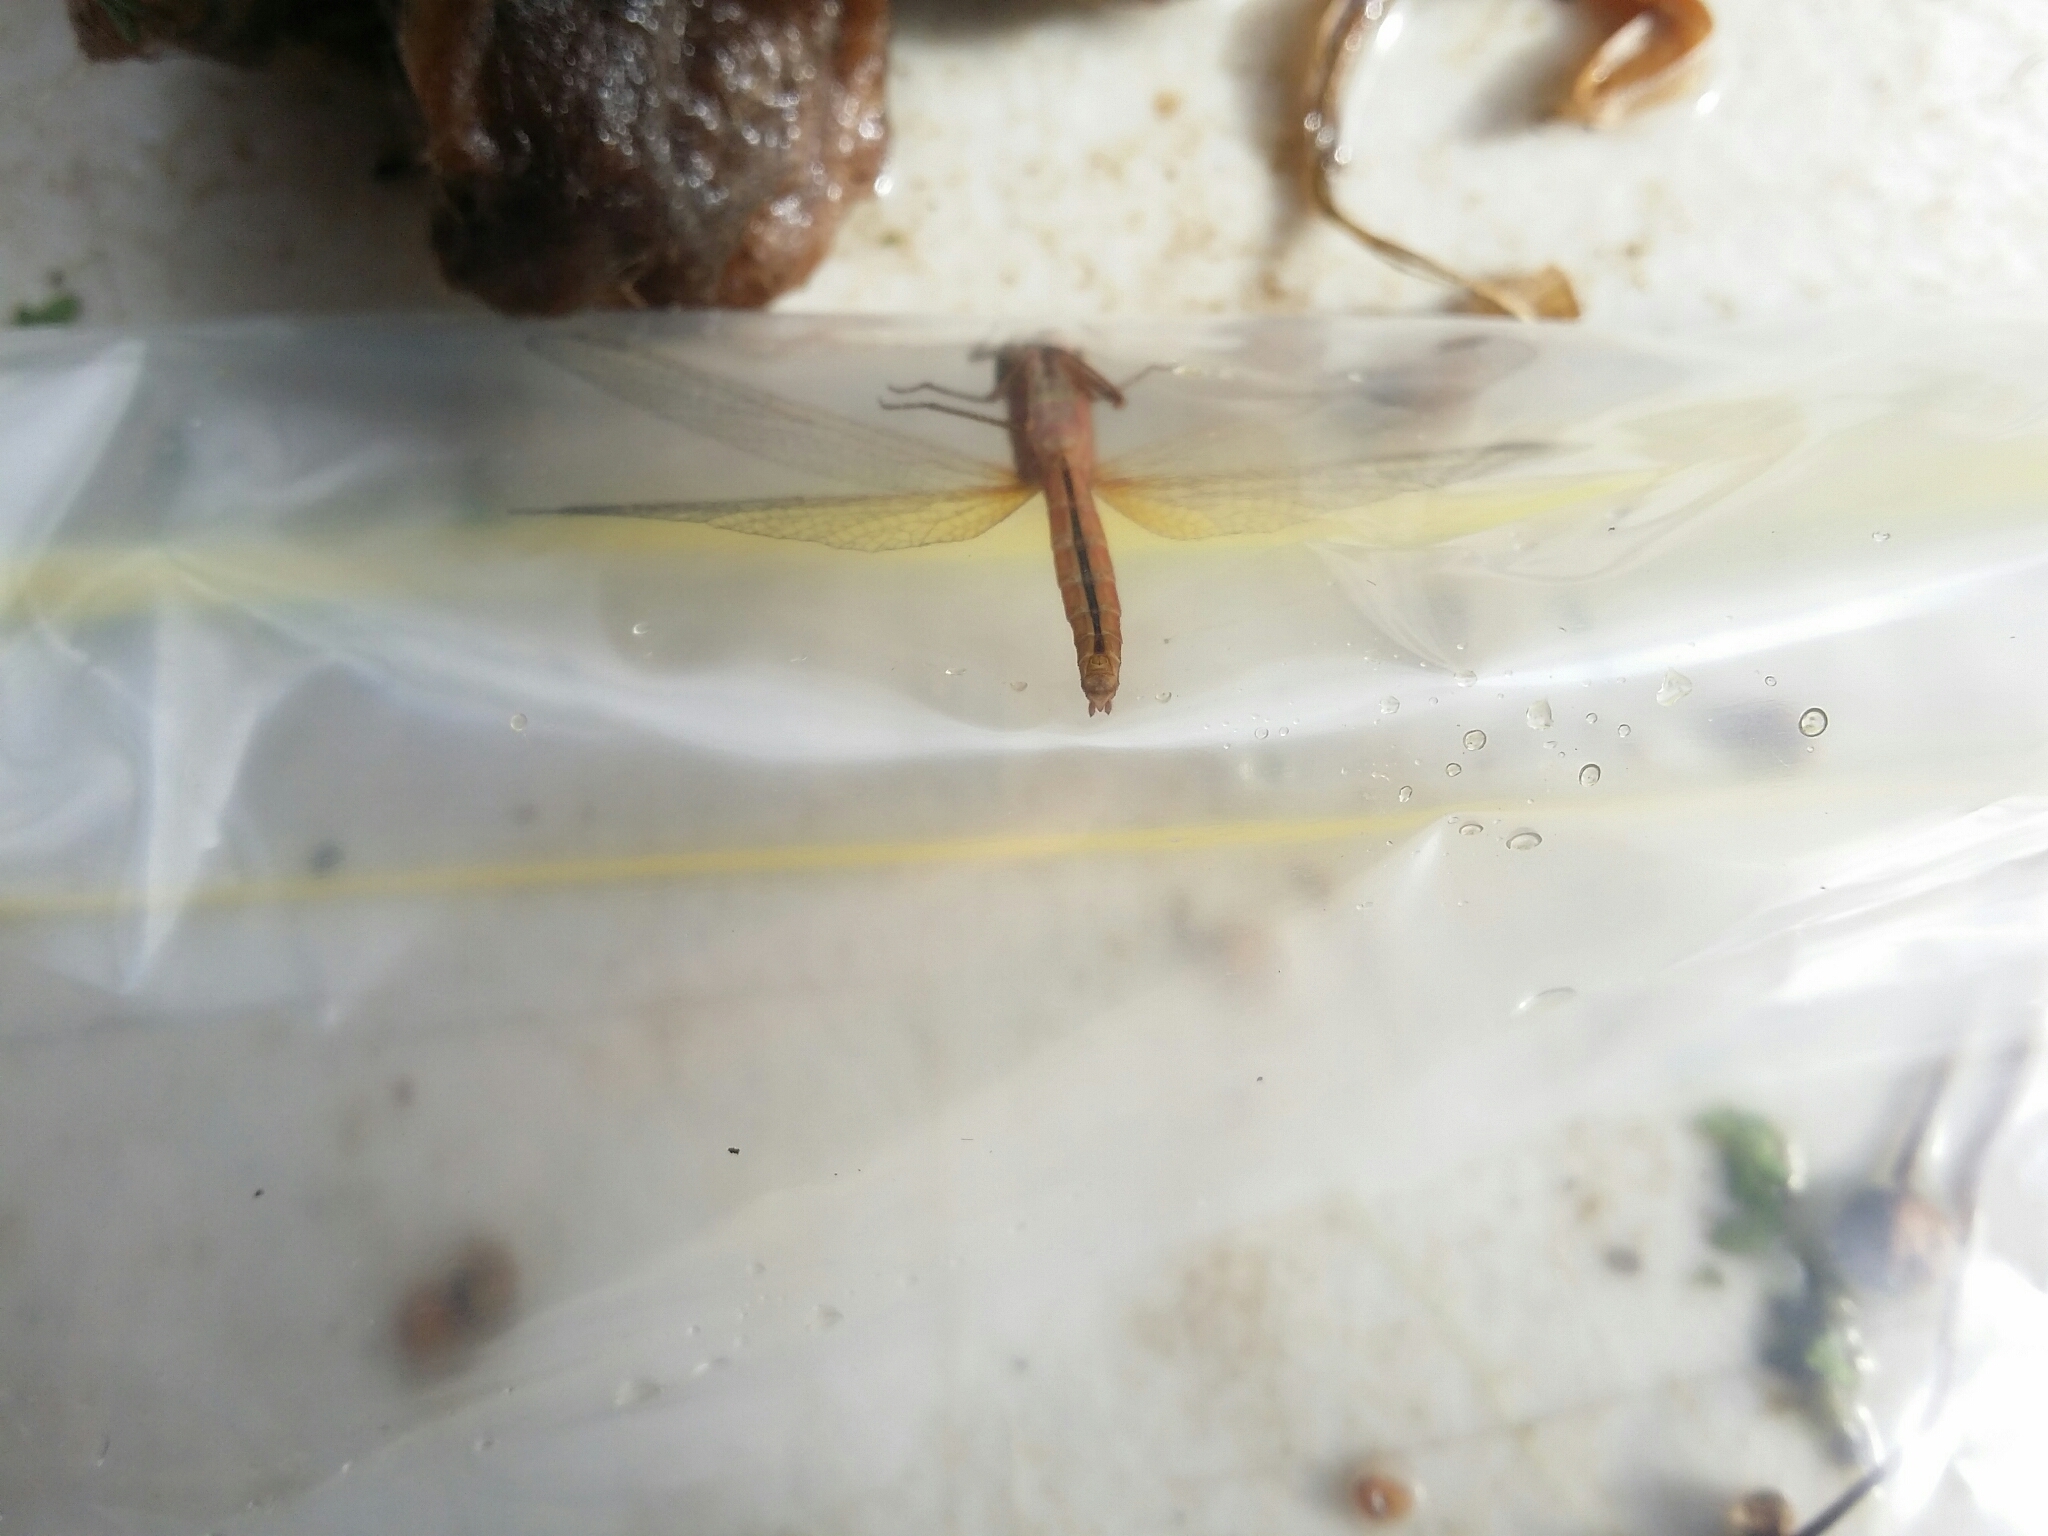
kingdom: Animalia
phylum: Arthropoda
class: Insecta
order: Odonata
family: Libellulidae
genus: Diplacodes
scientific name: Diplacodes haematodes
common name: Scarlet percher
